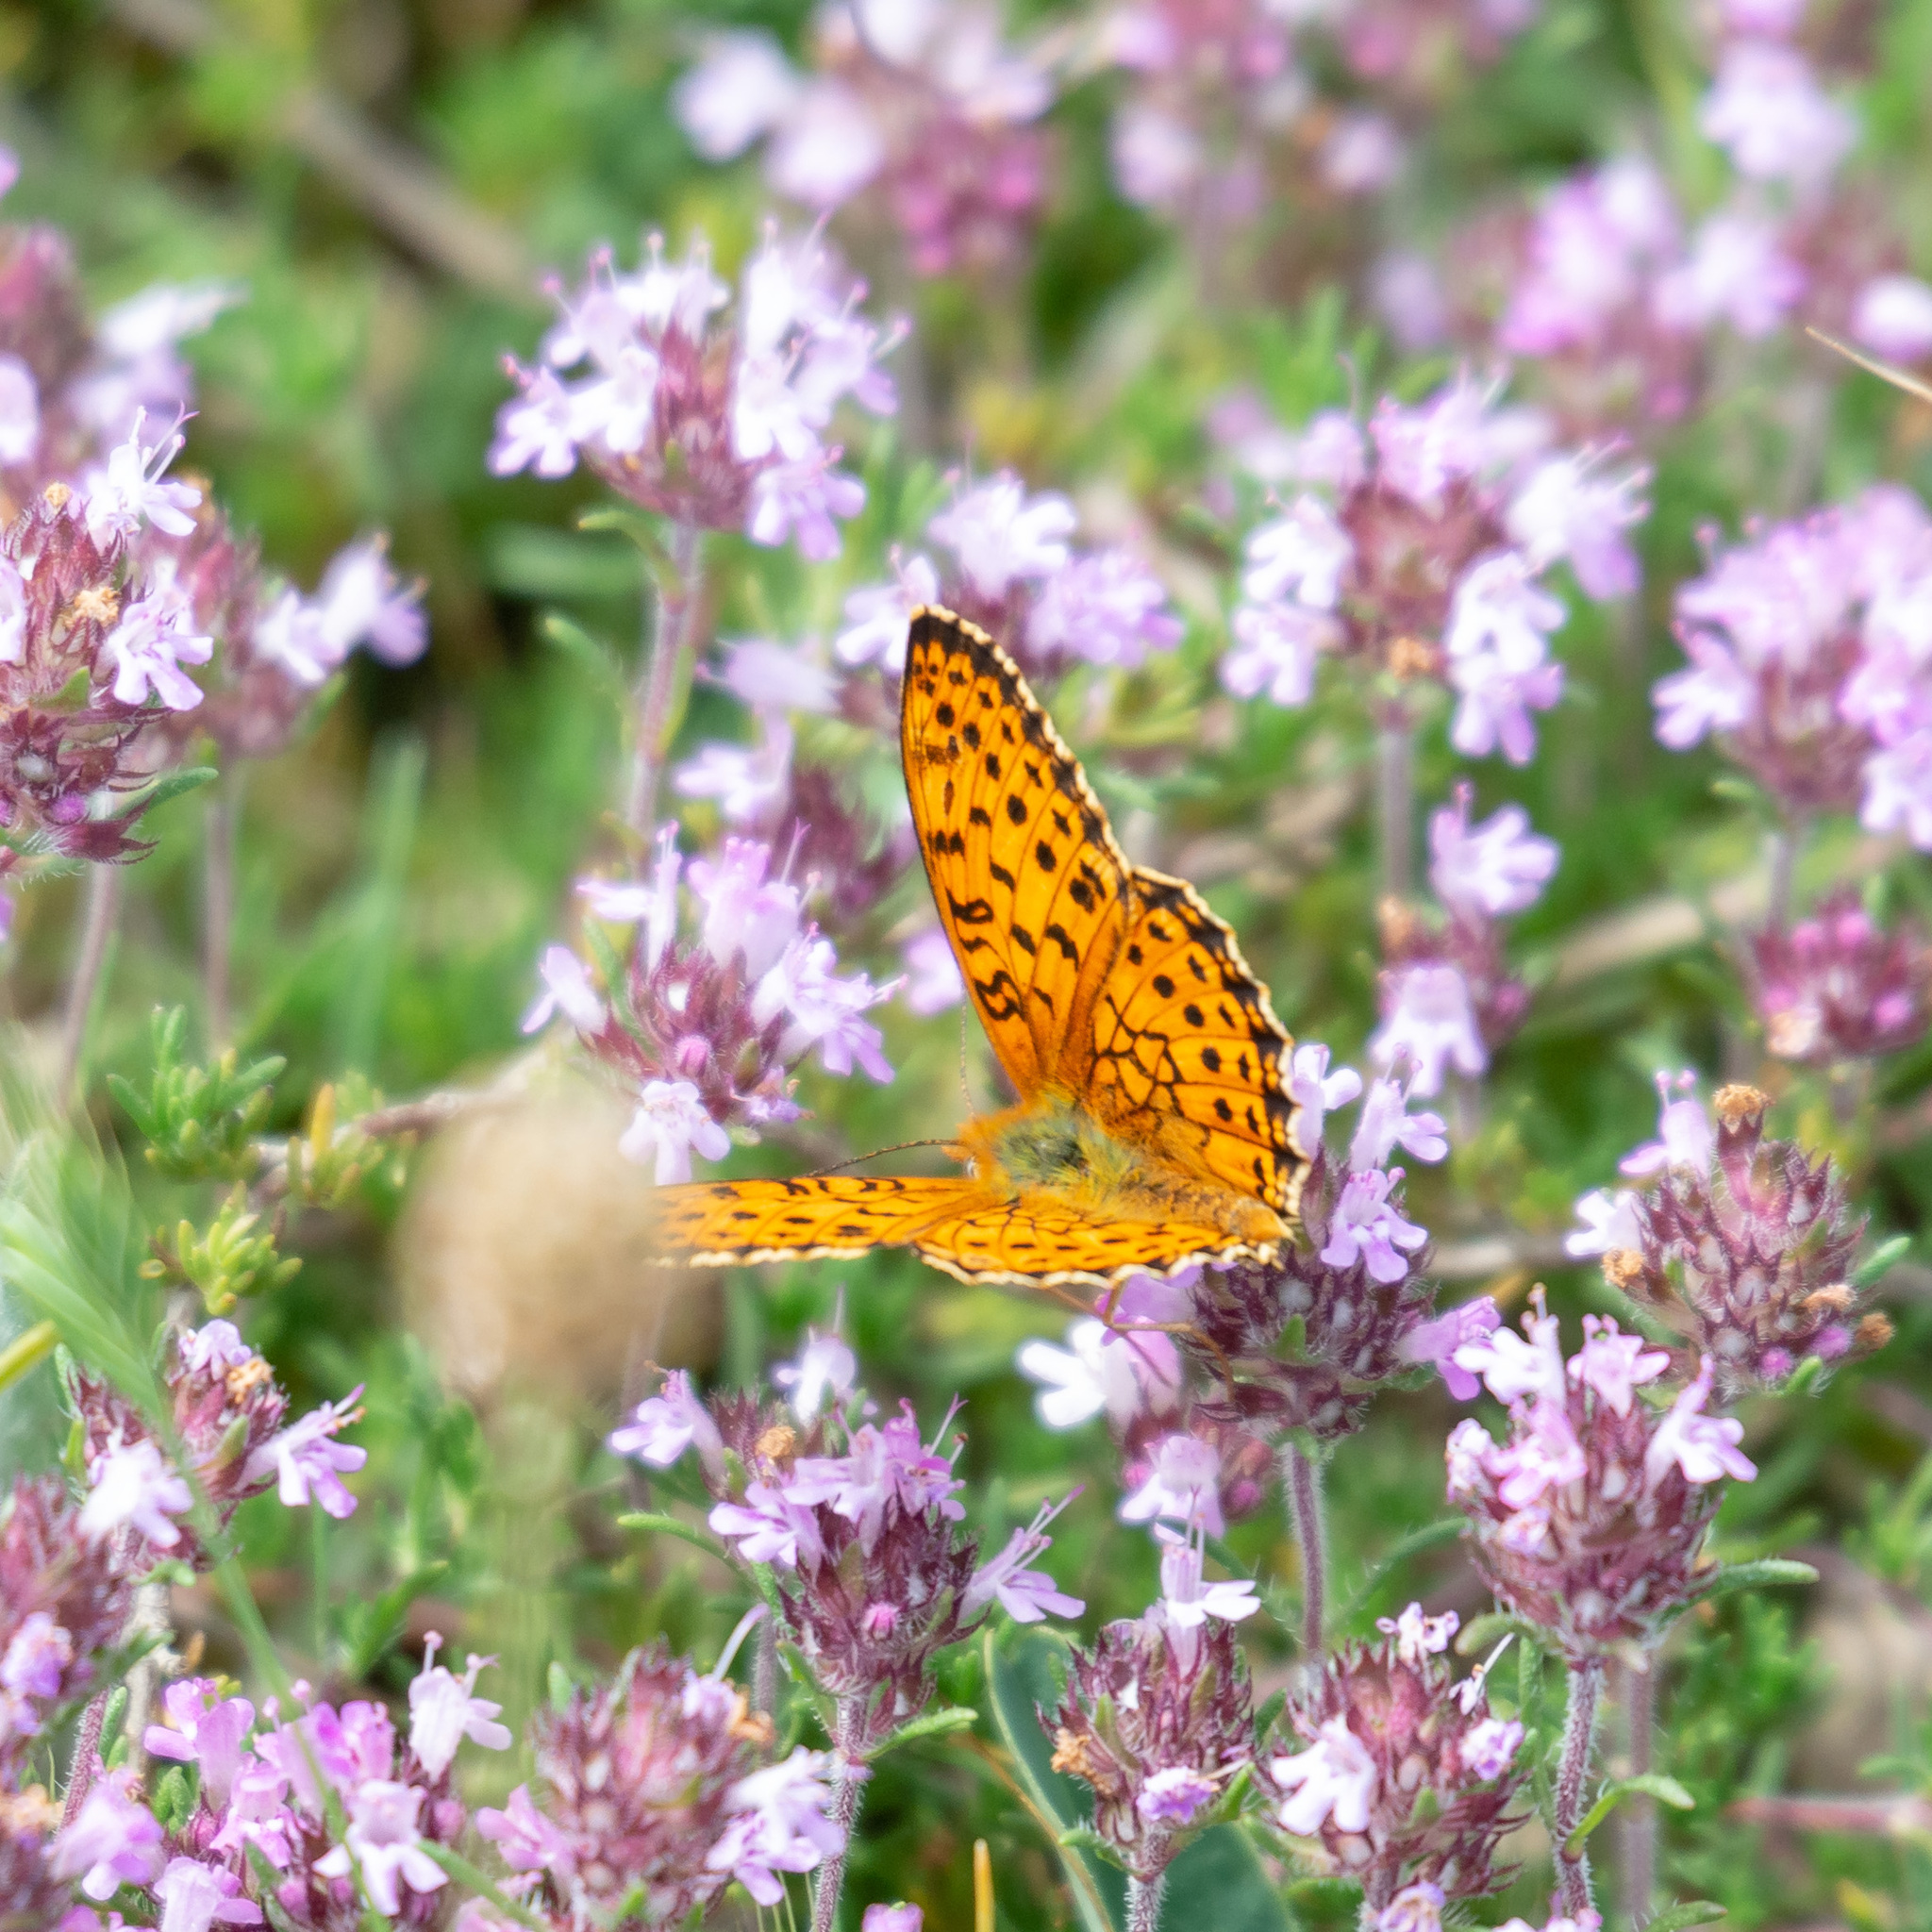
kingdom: Animalia
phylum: Arthropoda
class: Insecta
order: Lepidoptera
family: Nymphalidae
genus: Brenthis
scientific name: Brenthis hecate
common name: Twin-spot fritillary
